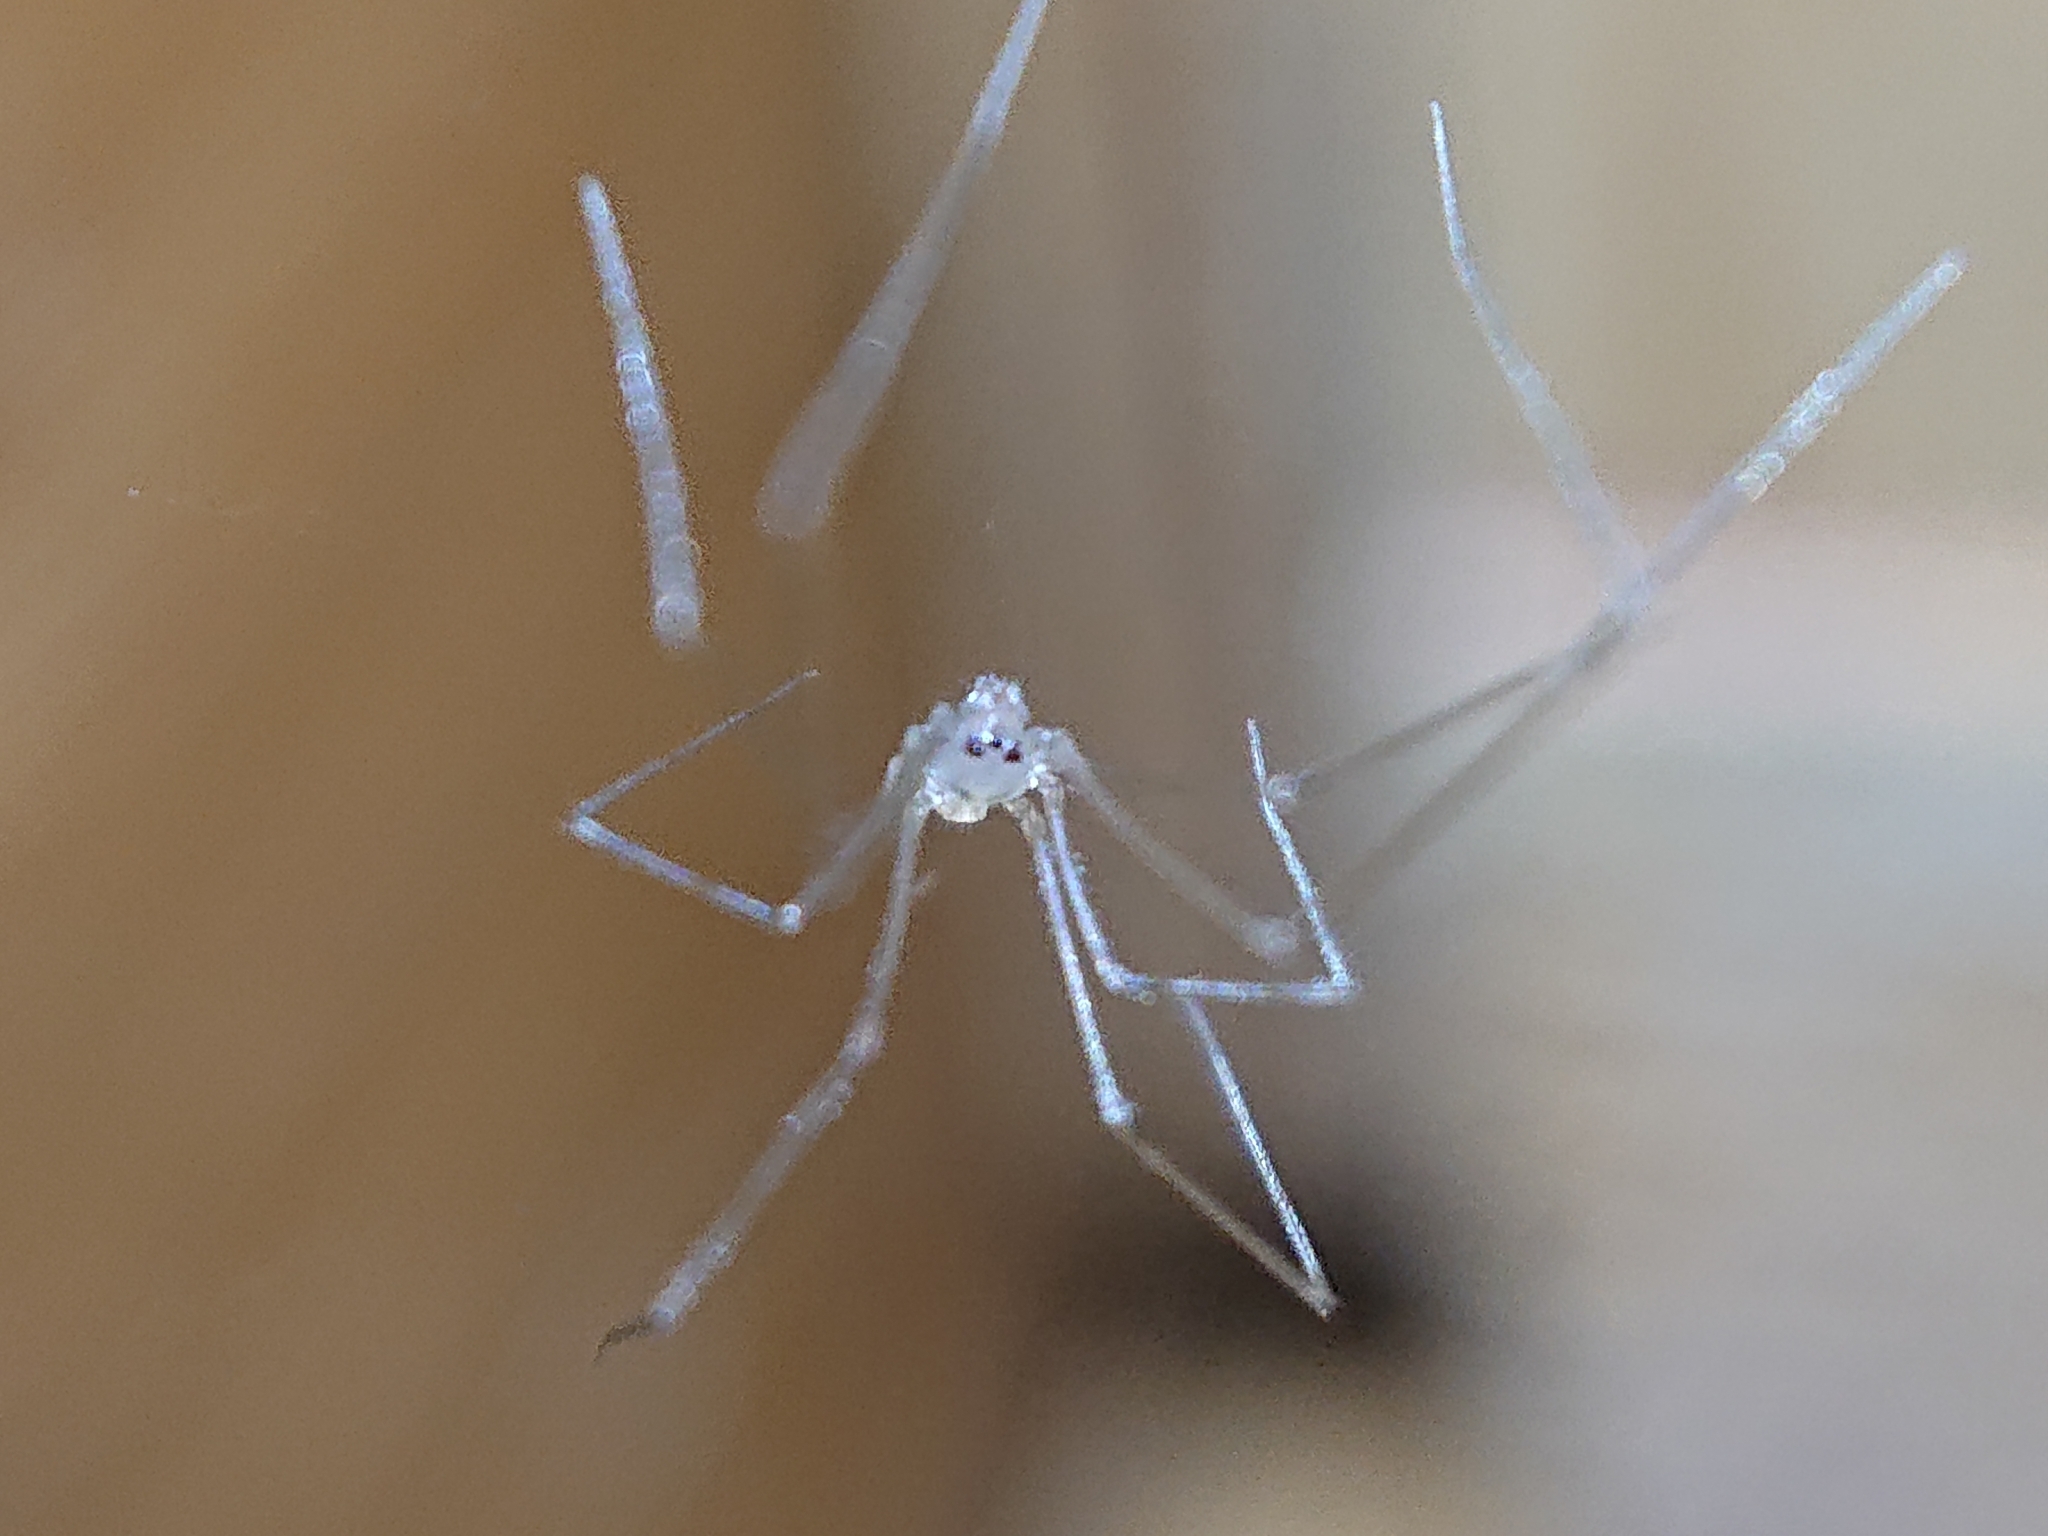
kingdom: Animalia
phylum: Arthropoda
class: Arachnida
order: Araneae
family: Pholcidae
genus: Pholcus
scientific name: Pholcus phalangioides
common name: Longbodied cellar spider
